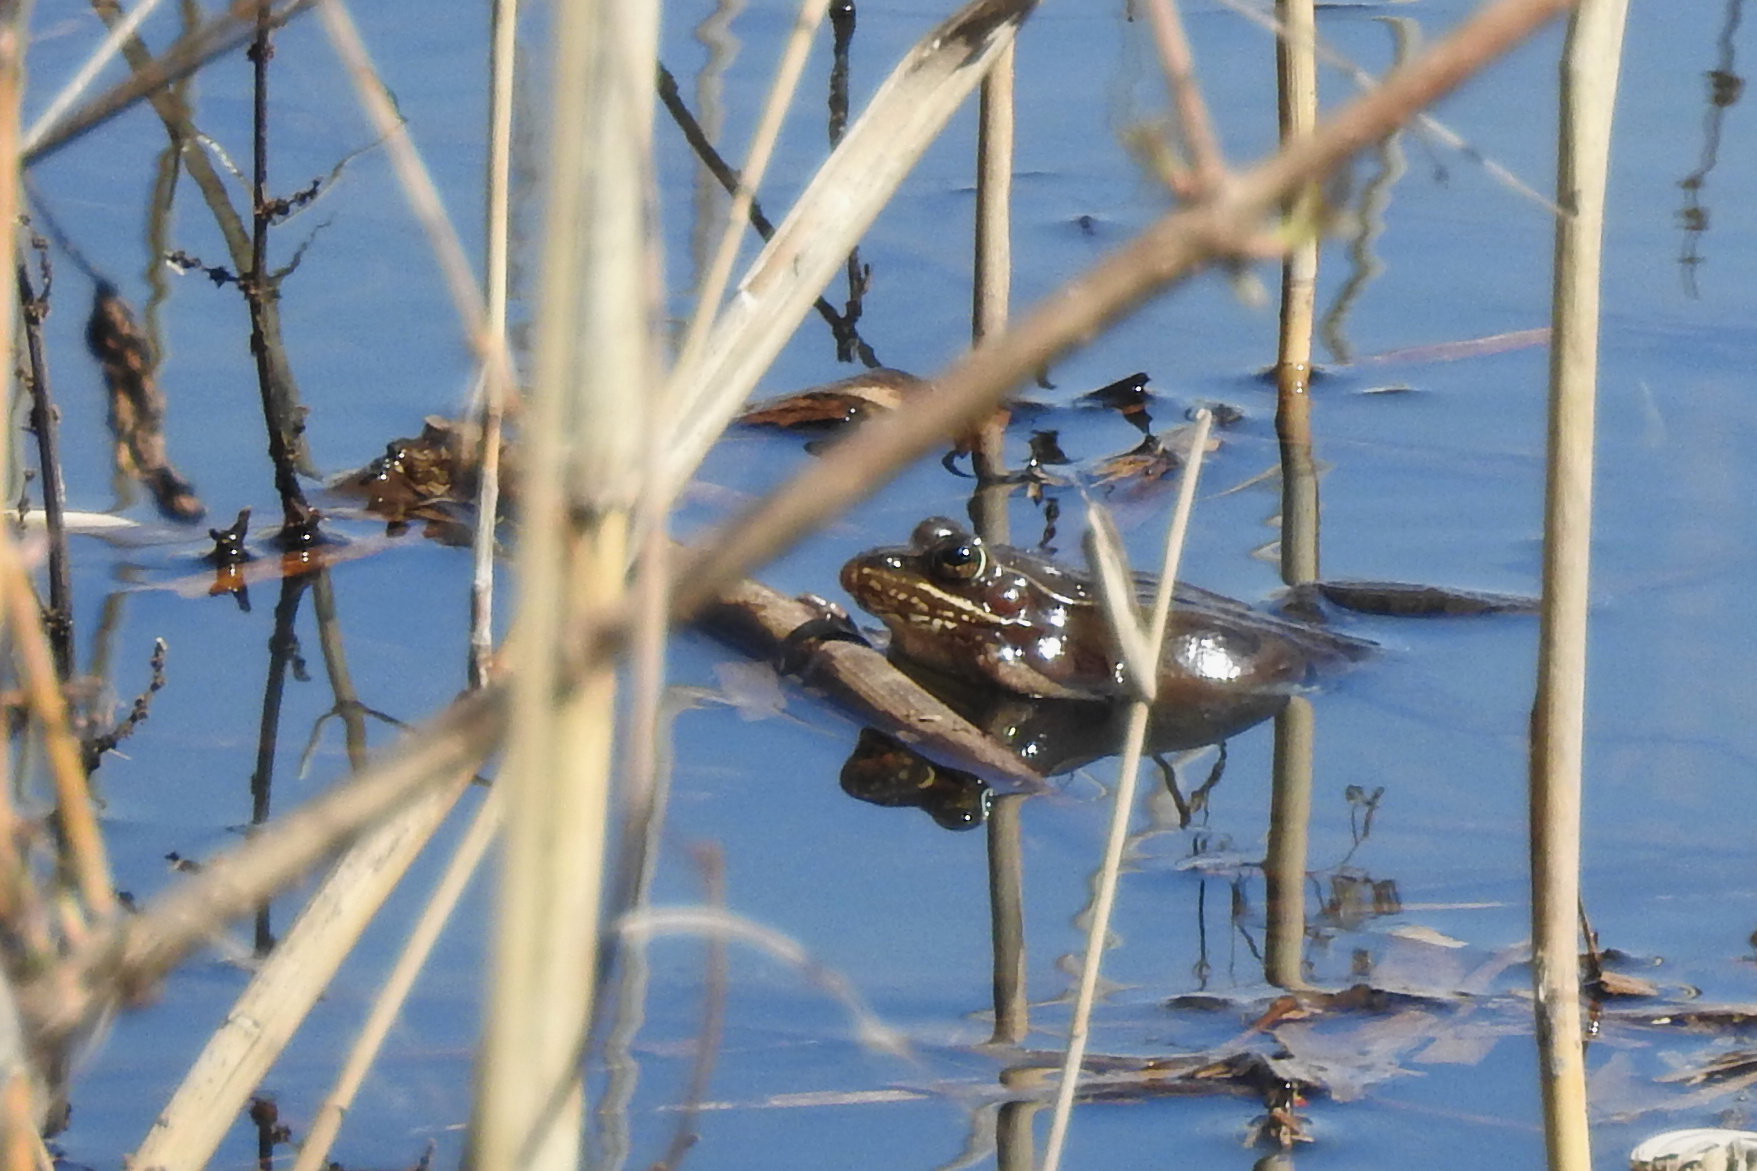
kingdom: Animalia
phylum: Chordata
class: Amphibia
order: Anura
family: Ranidae
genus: Lithobates
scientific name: Lithobates kauffeldi
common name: Mid-atlantic coast leopard frog
